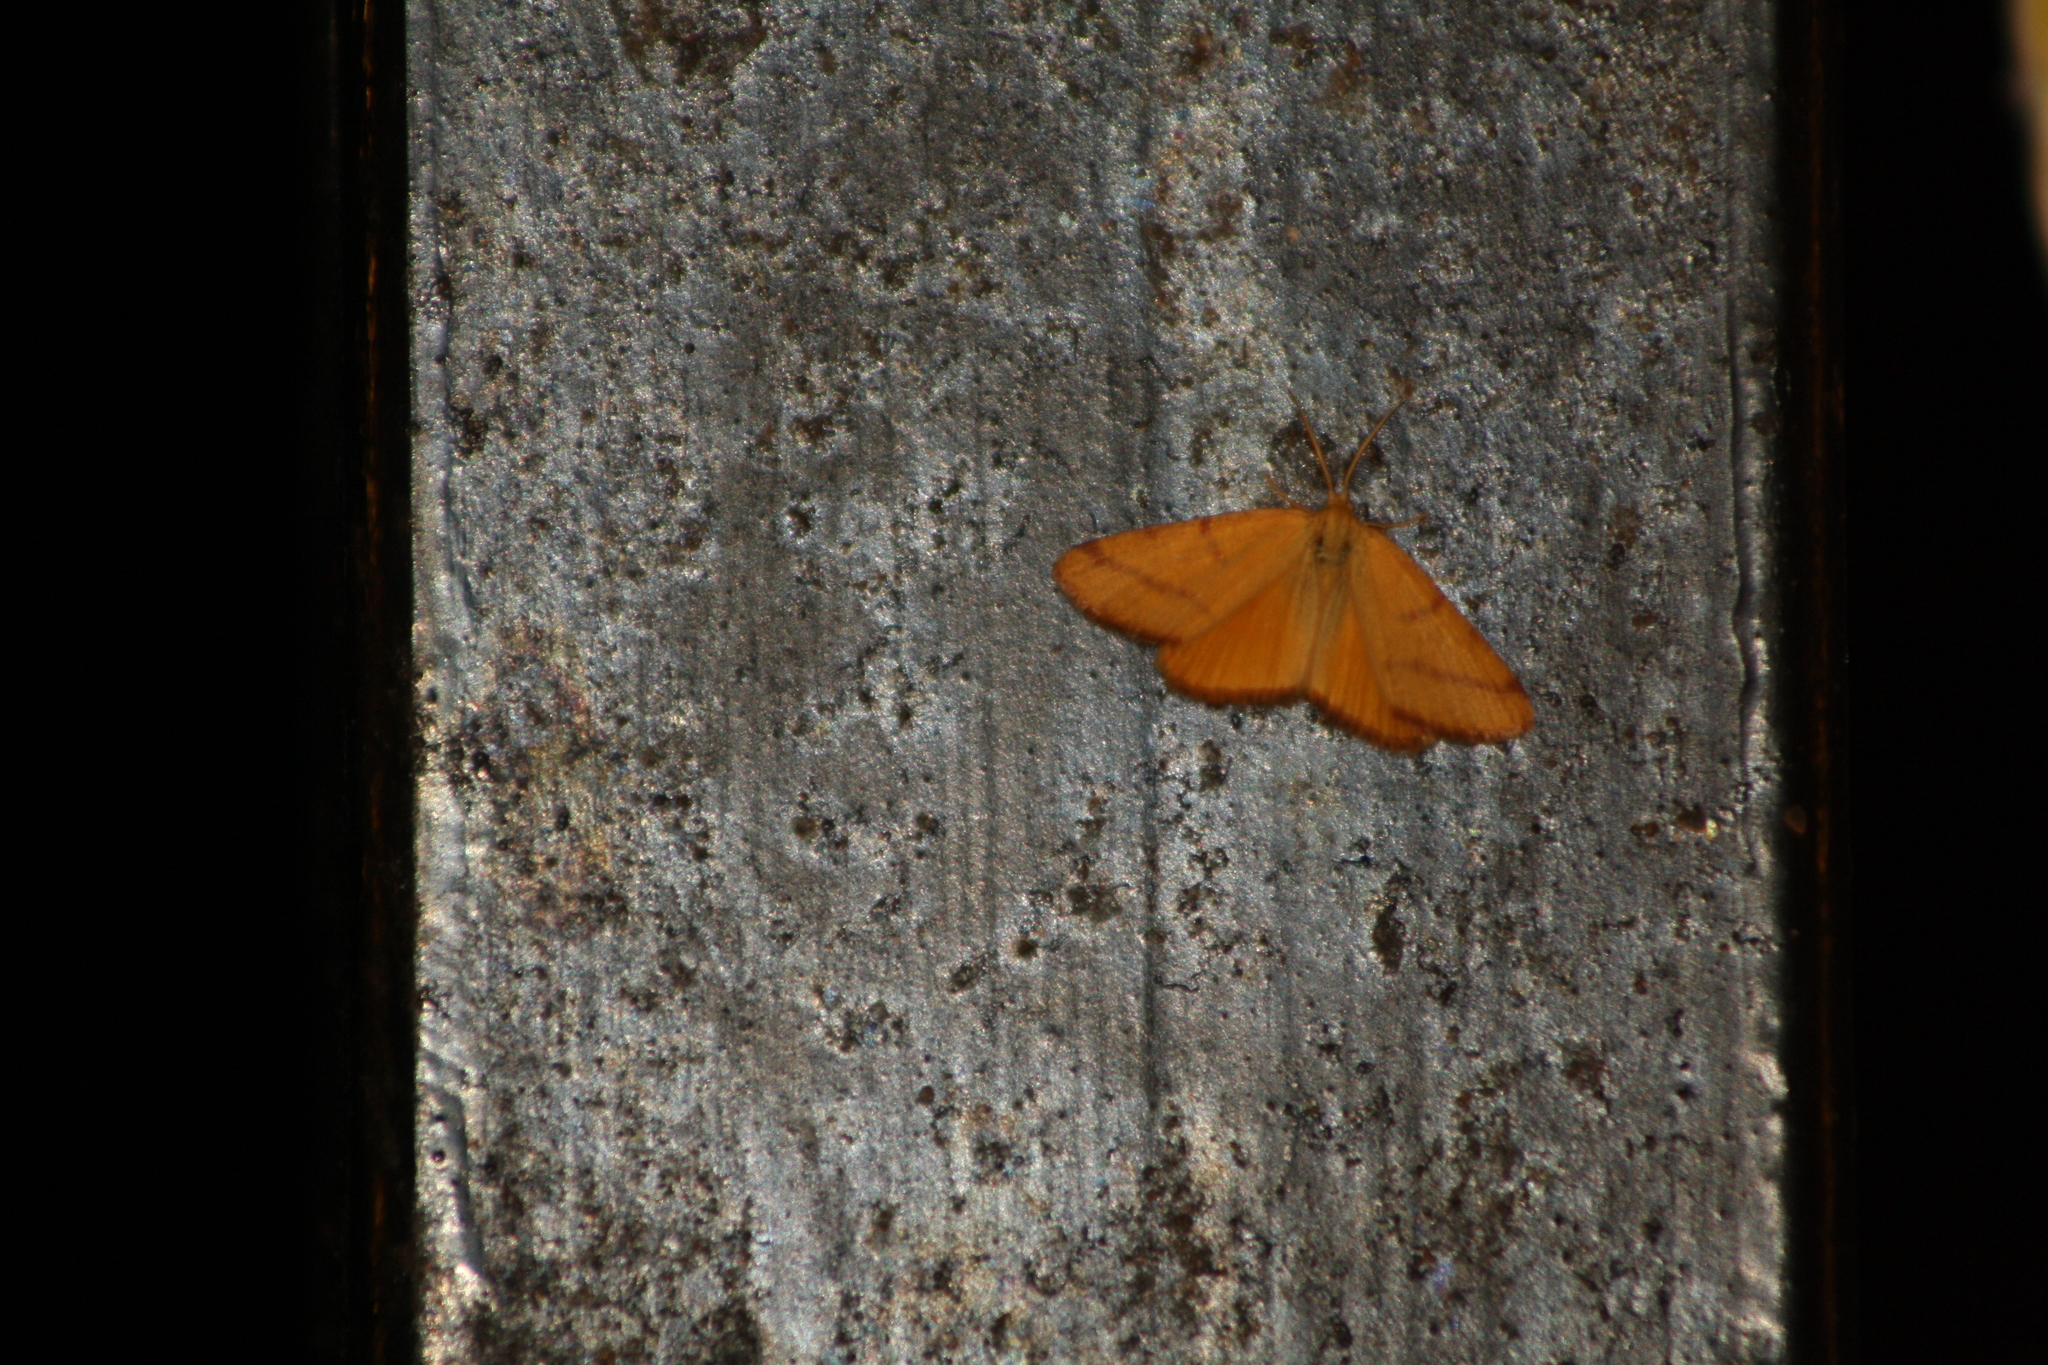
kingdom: Animalia
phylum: Arthropoda
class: Insecta
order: Lepidoptera
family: Geometridae
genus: Lythria
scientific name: Lythria purpuraria
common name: Purple-barred yellow
